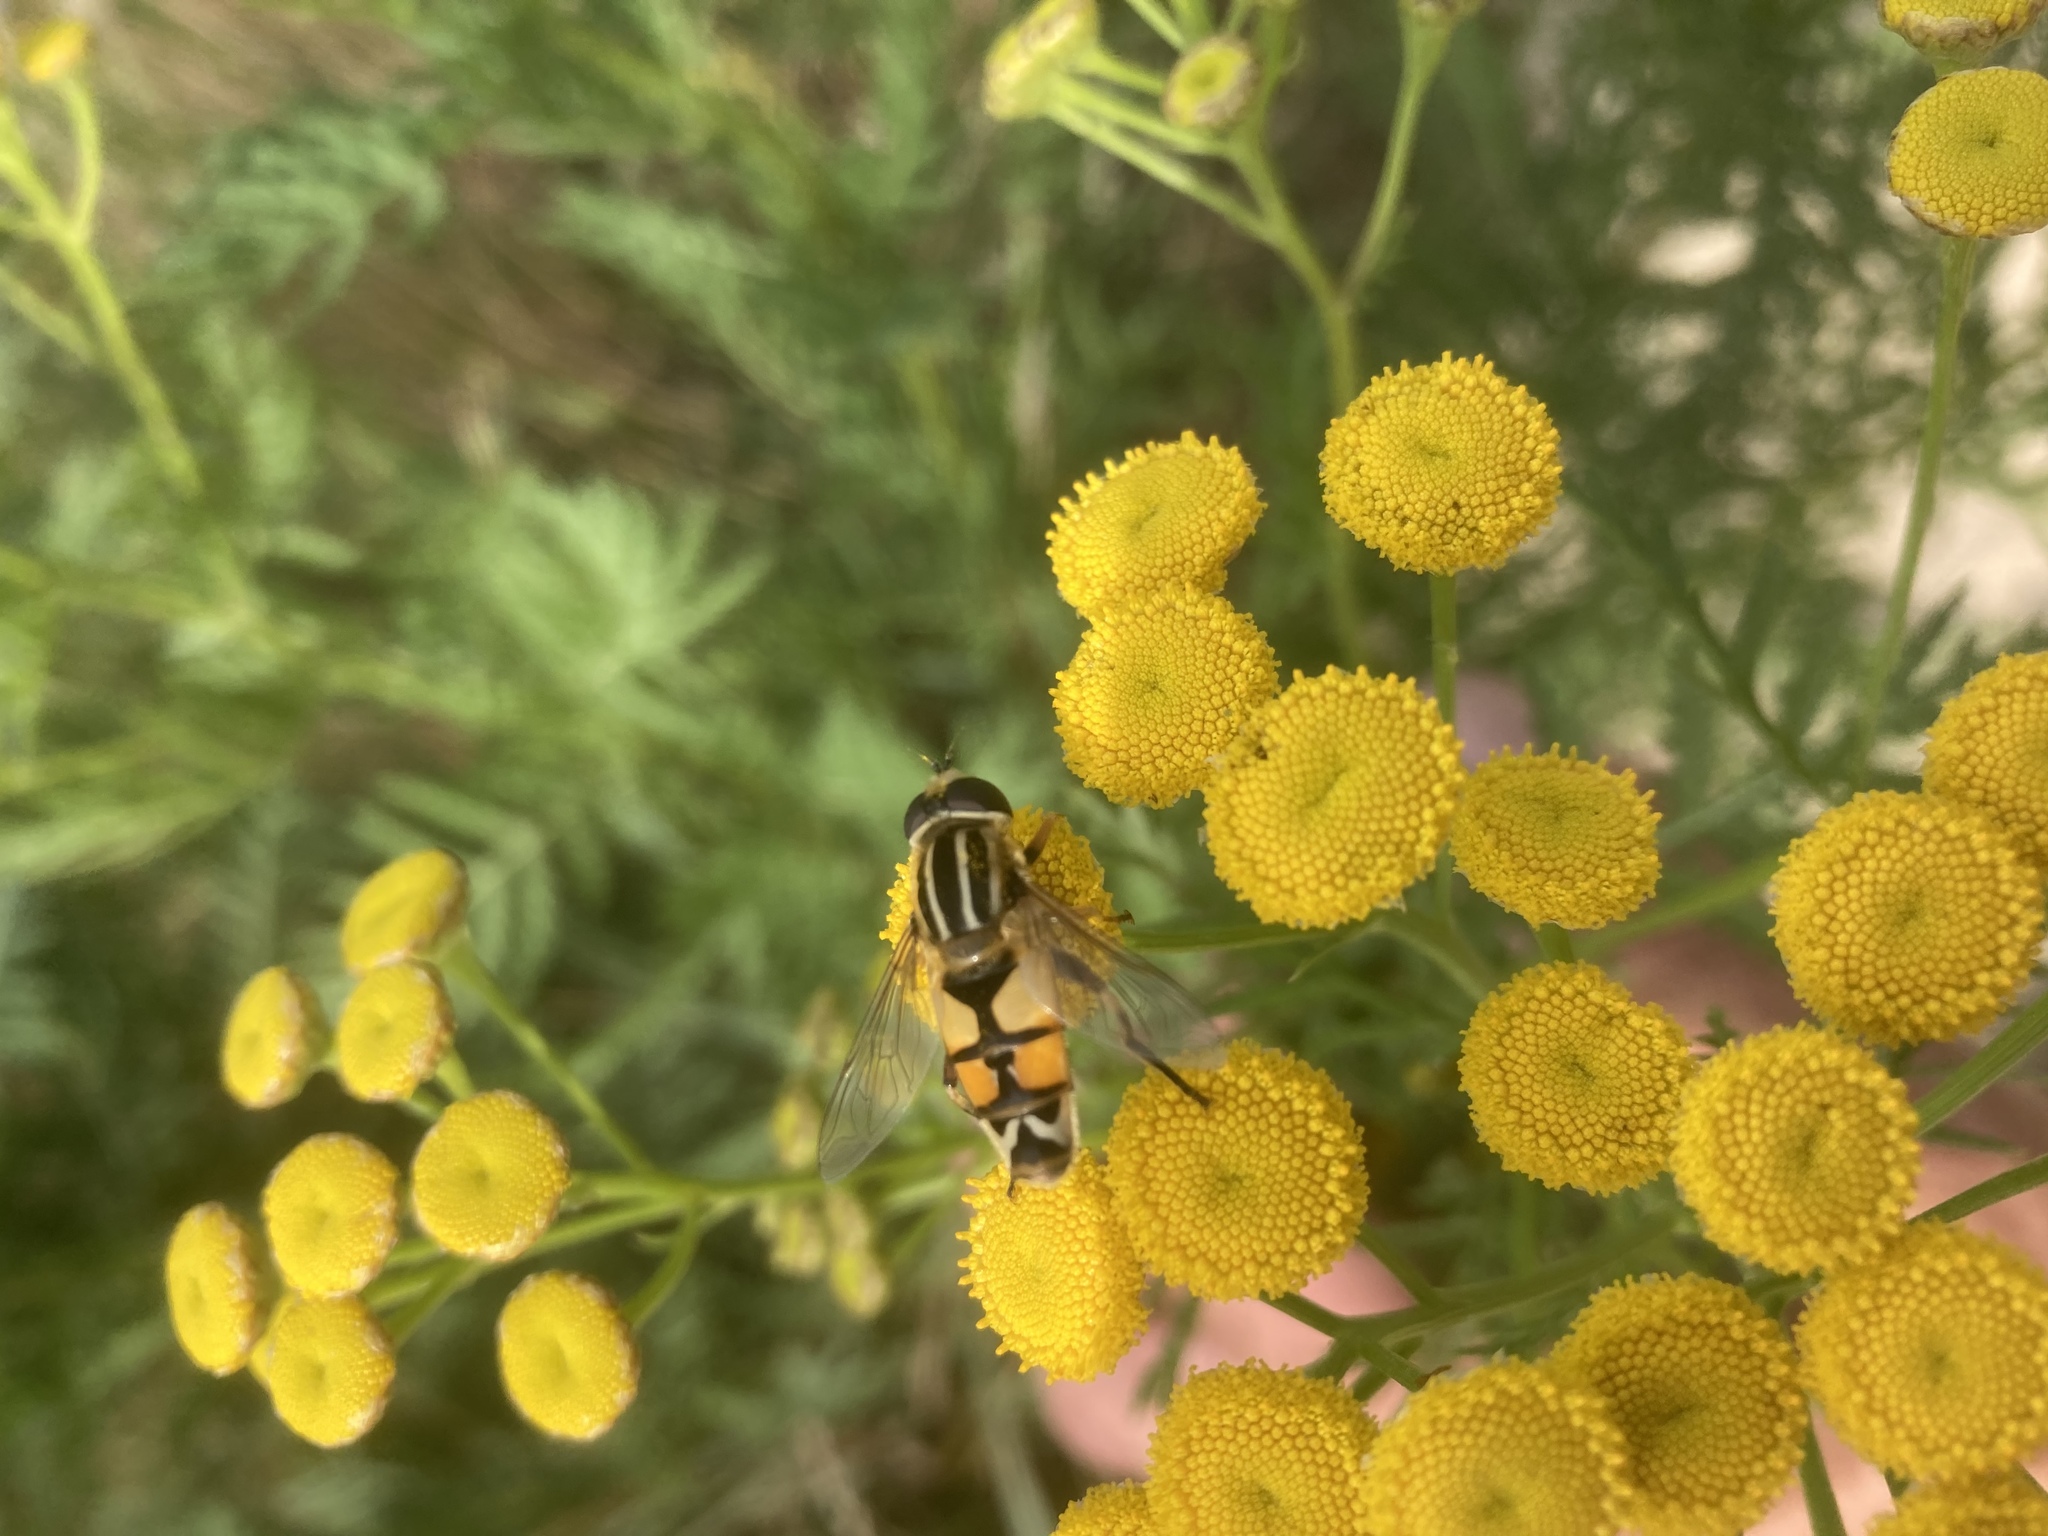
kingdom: Animalia
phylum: Arthropoda
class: Insecta
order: Diptera
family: Syrphidae
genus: Helophilus
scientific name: Helophilus trivittatus
